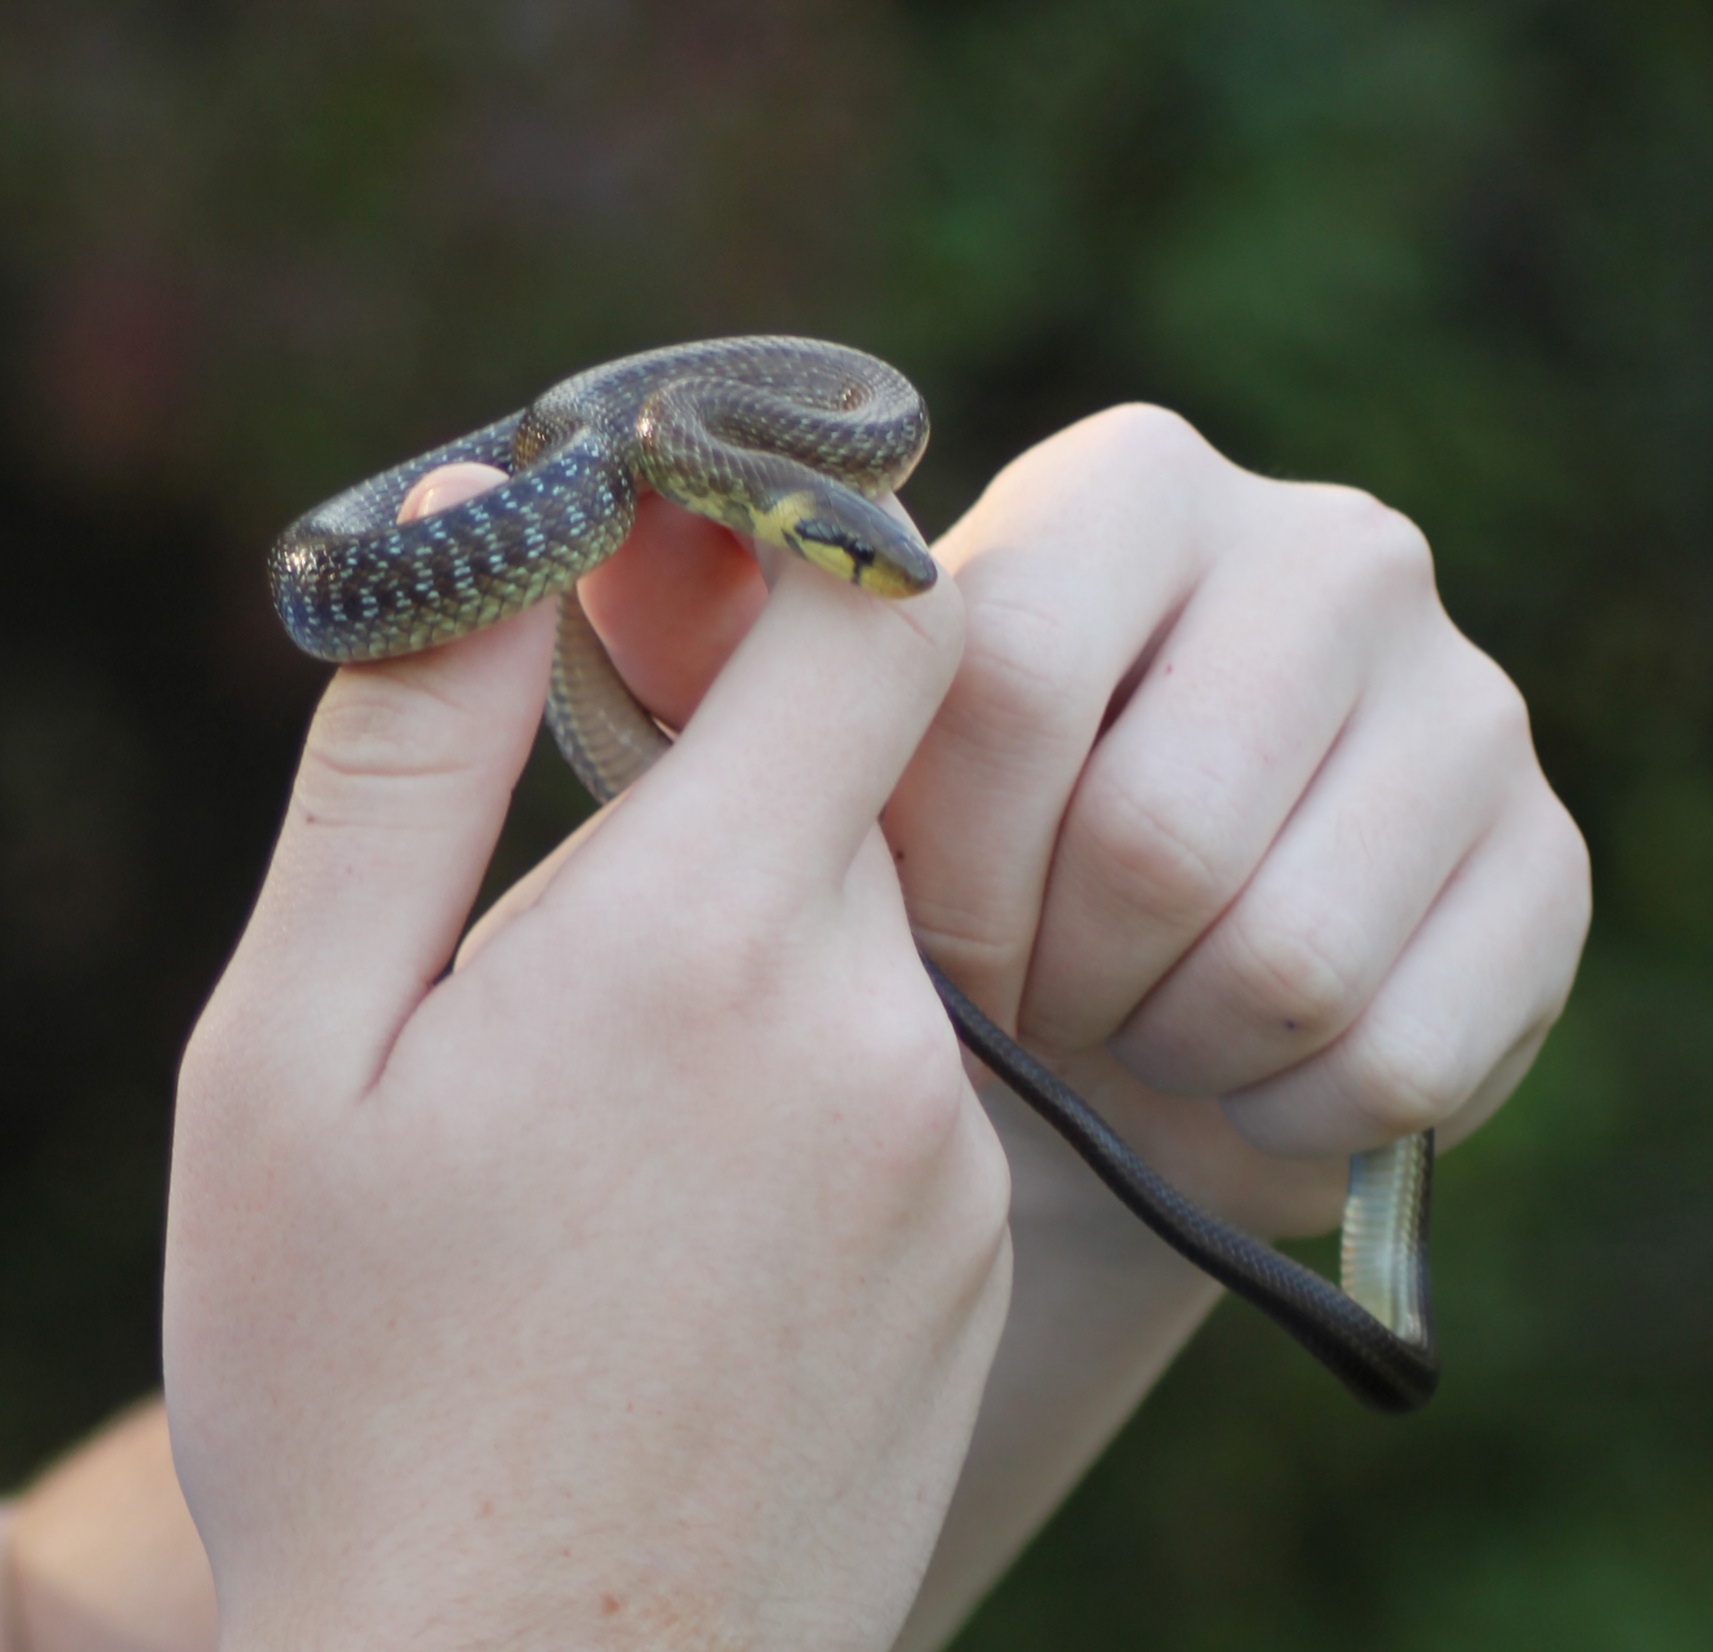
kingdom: Animalia
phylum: Chordata
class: Squamata
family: Colubridae
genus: Zamenis
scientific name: Zamenis longissimus
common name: Aesculapean snake
